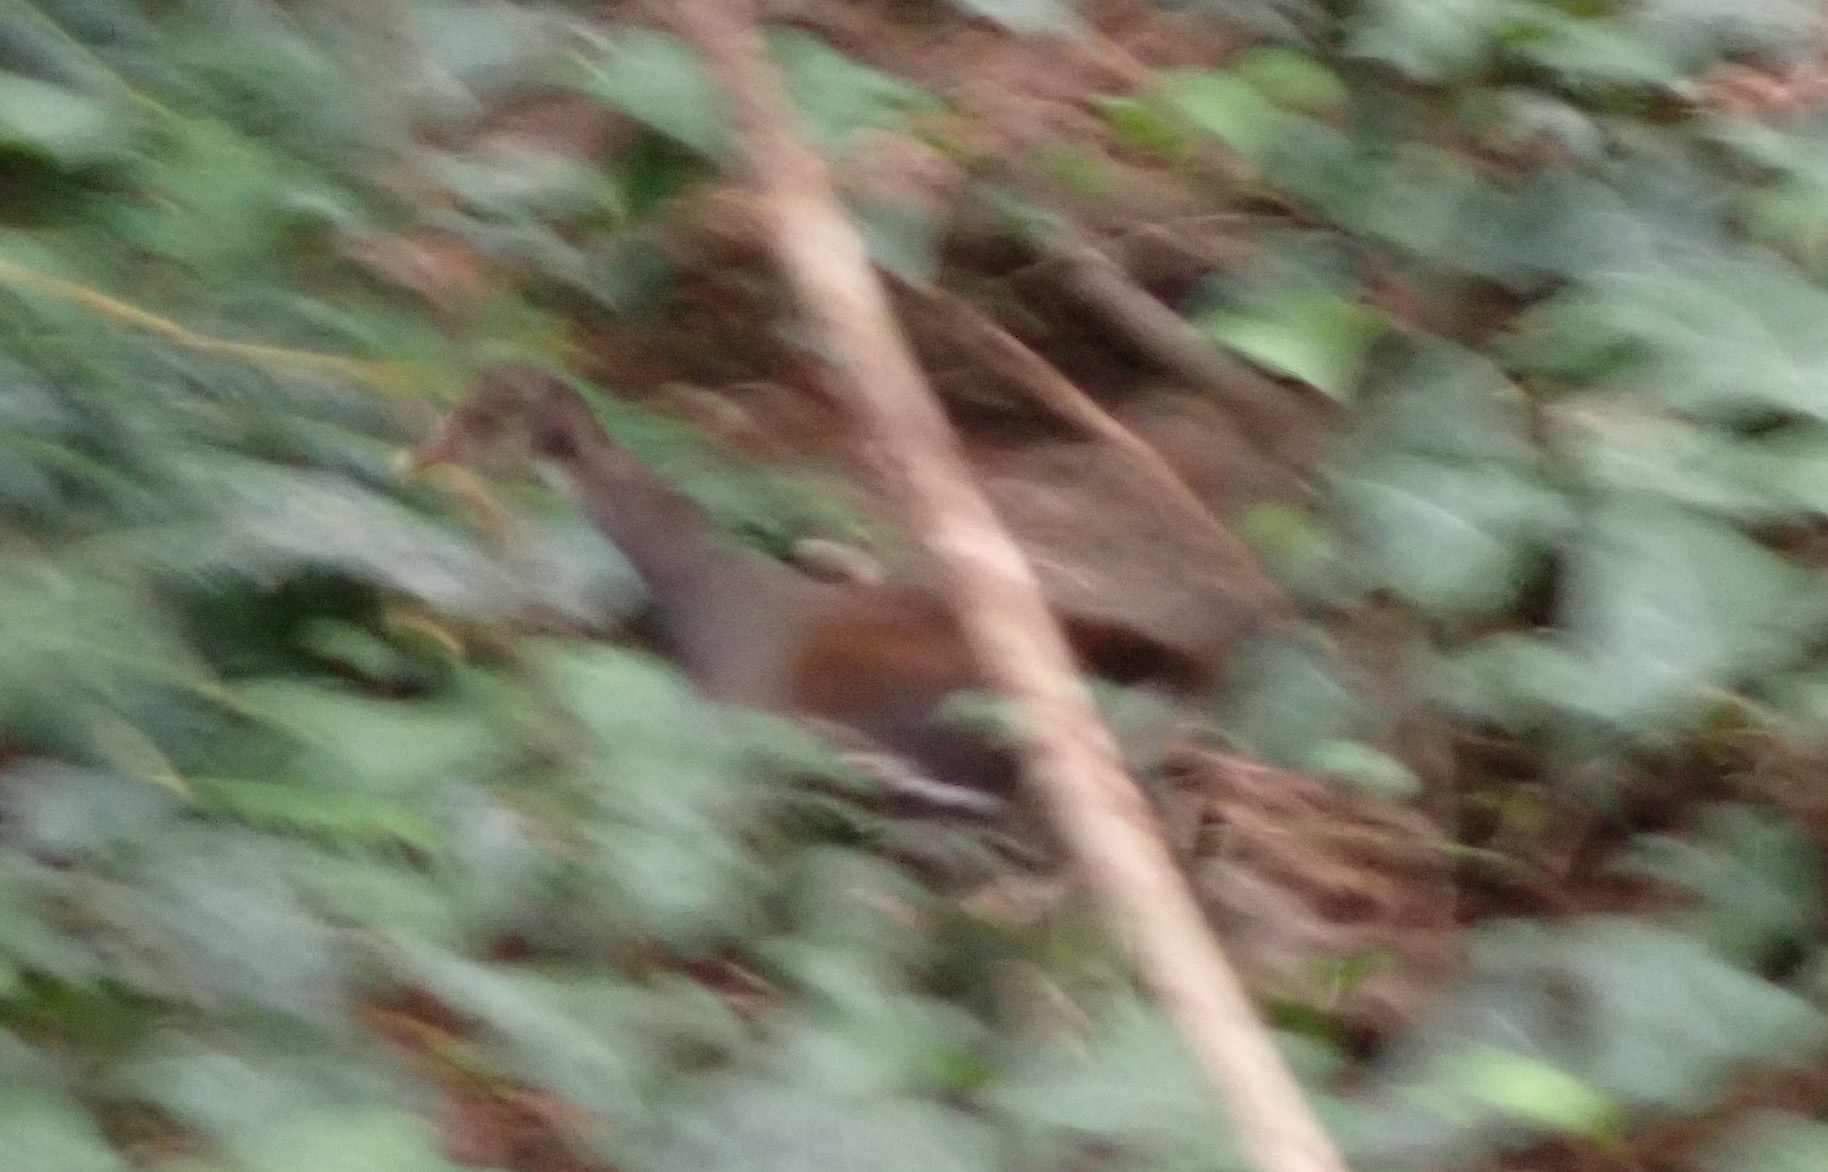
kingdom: Animalia
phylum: Chordata
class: Aves
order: Gruiformes
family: Rallidae
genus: Gallinula
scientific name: Gallinula chloropus
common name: Common moorhen
